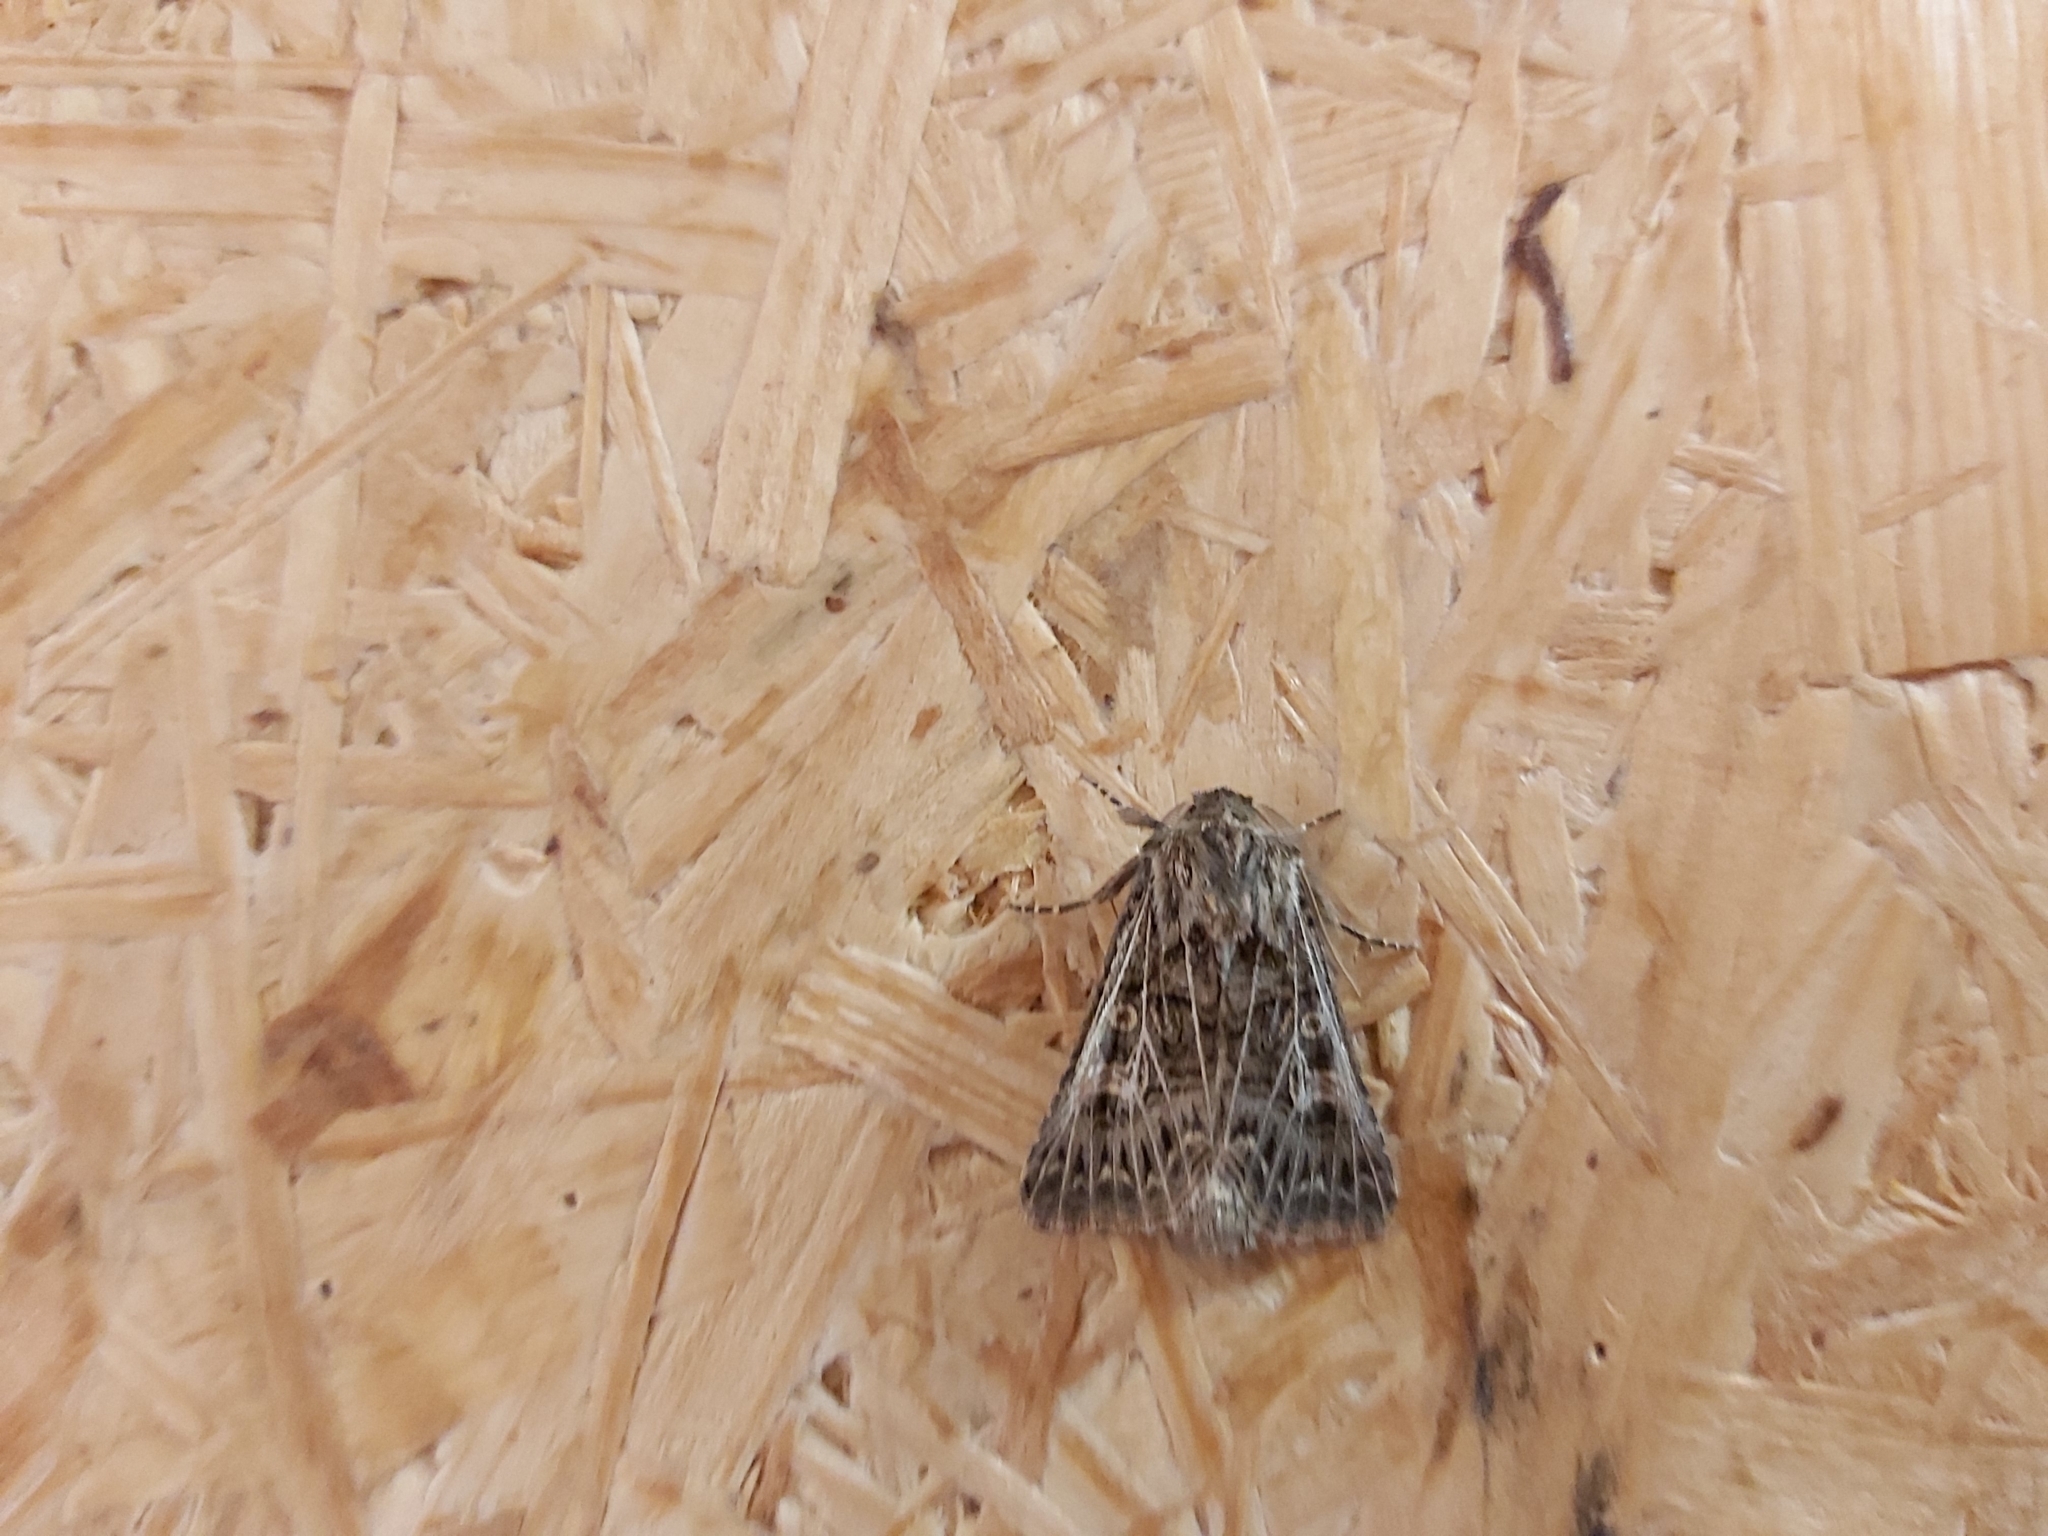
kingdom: Animalia
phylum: Arthropoda
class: Insecta
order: Lepidoptera
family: Noctuidae
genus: Tholera
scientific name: Tholera decimalis
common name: Feathered gothic
